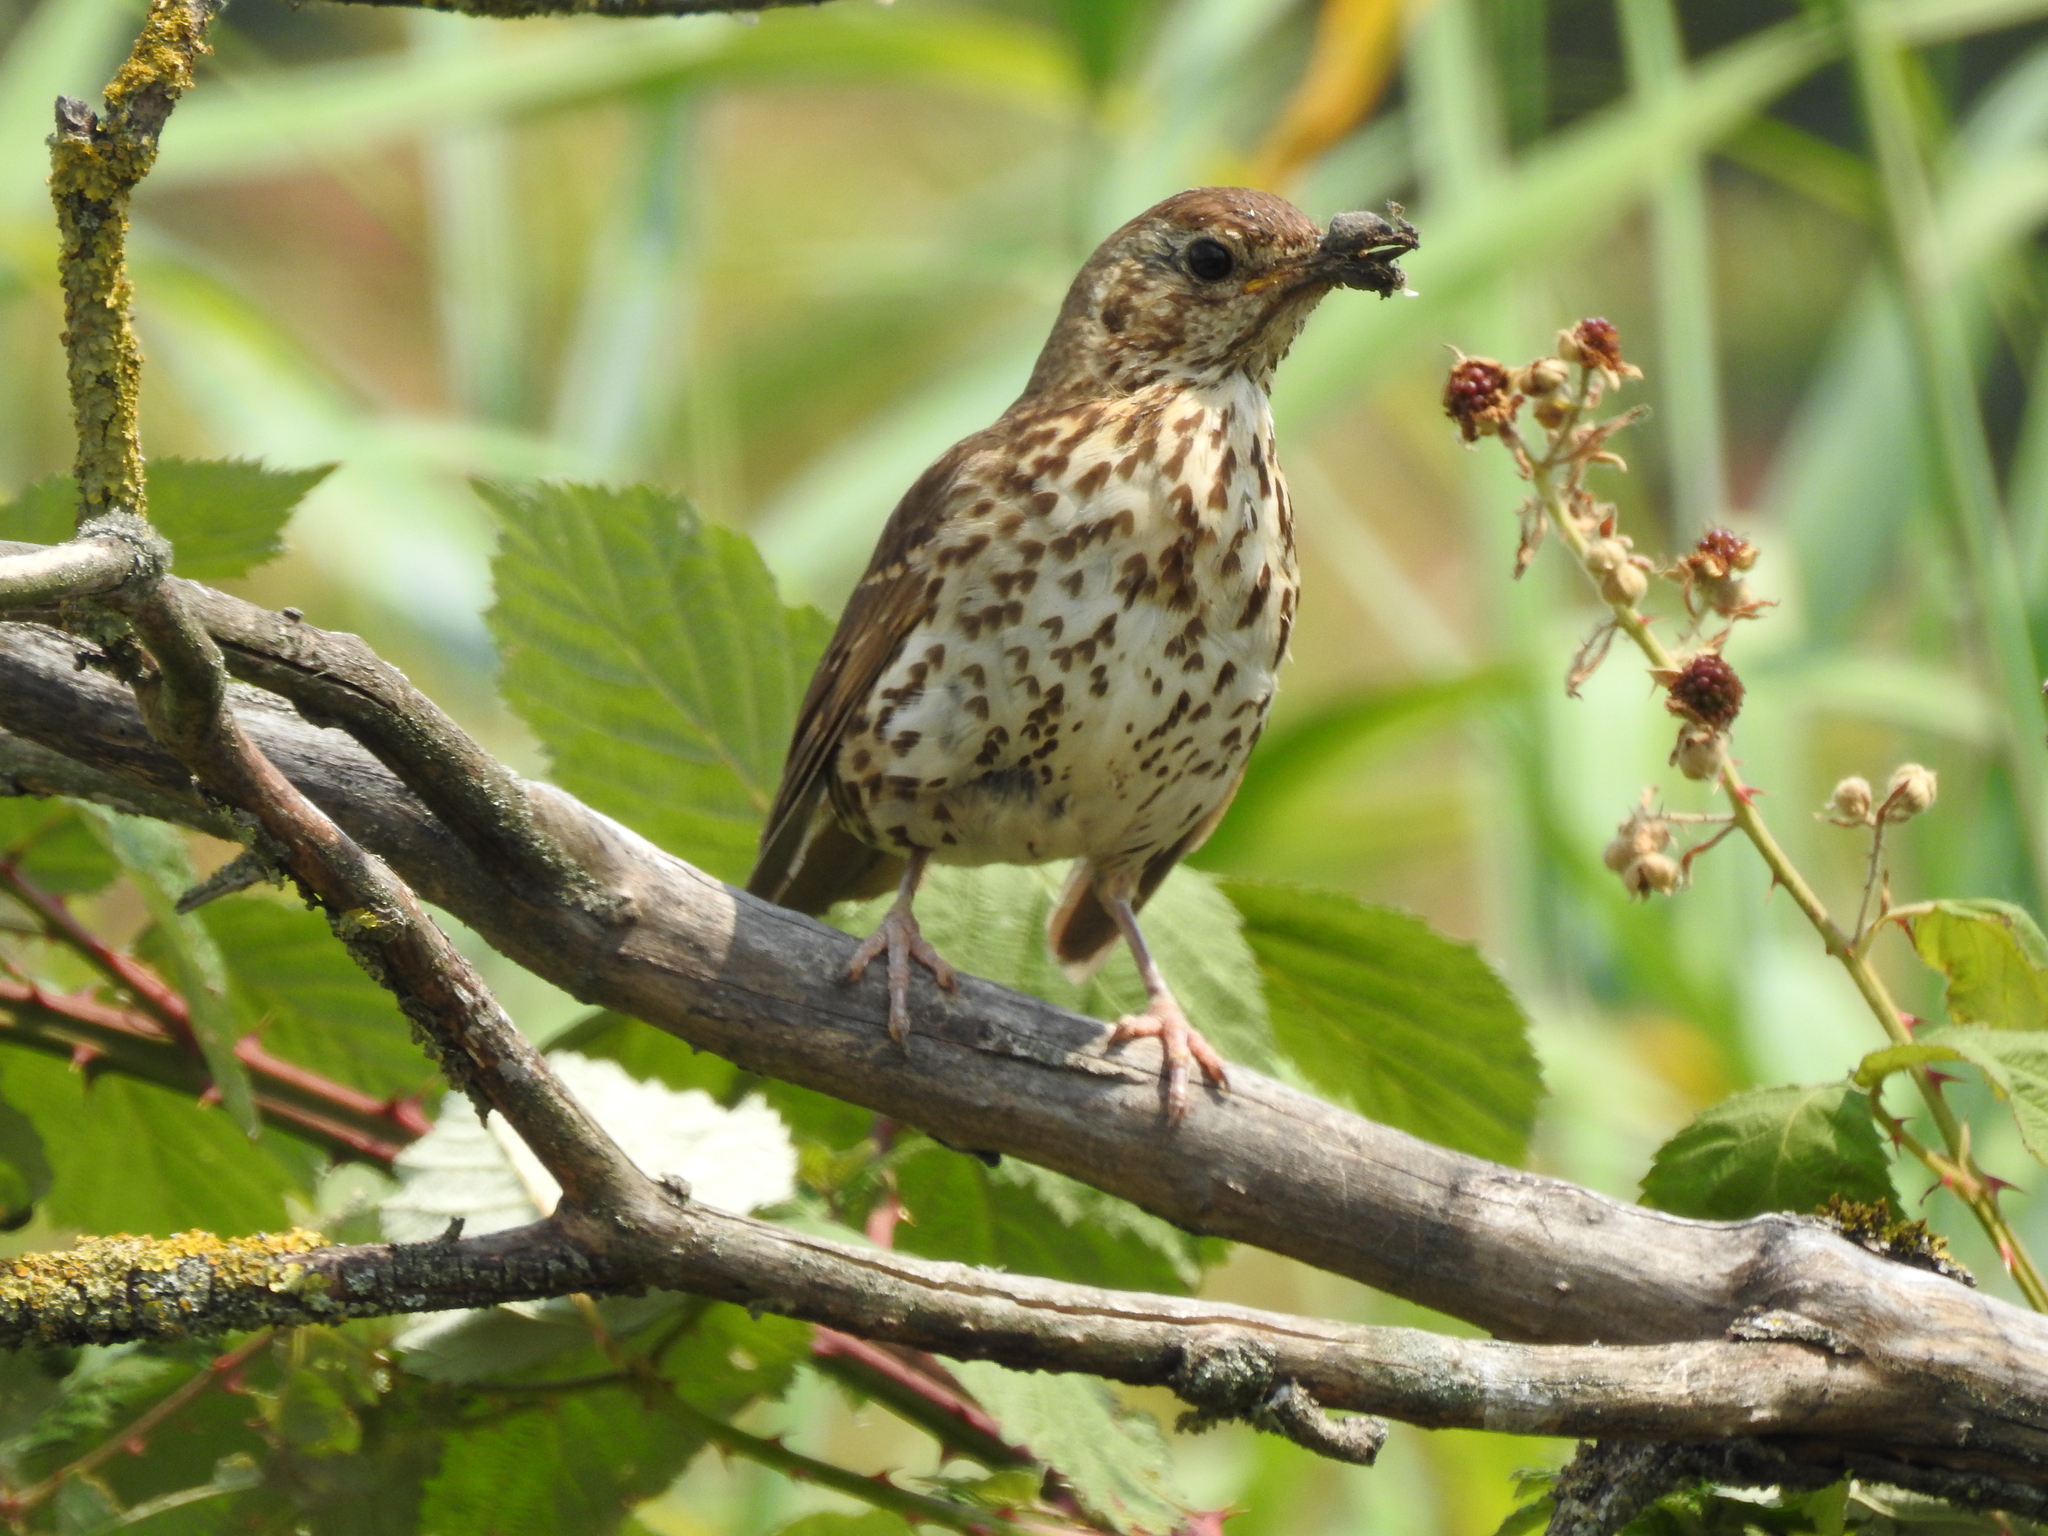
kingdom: Animalia
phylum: Chordata
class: Aves
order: Passeriformes
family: Turdidae
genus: Turdus
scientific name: Turdus philomelos
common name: Song thrush
